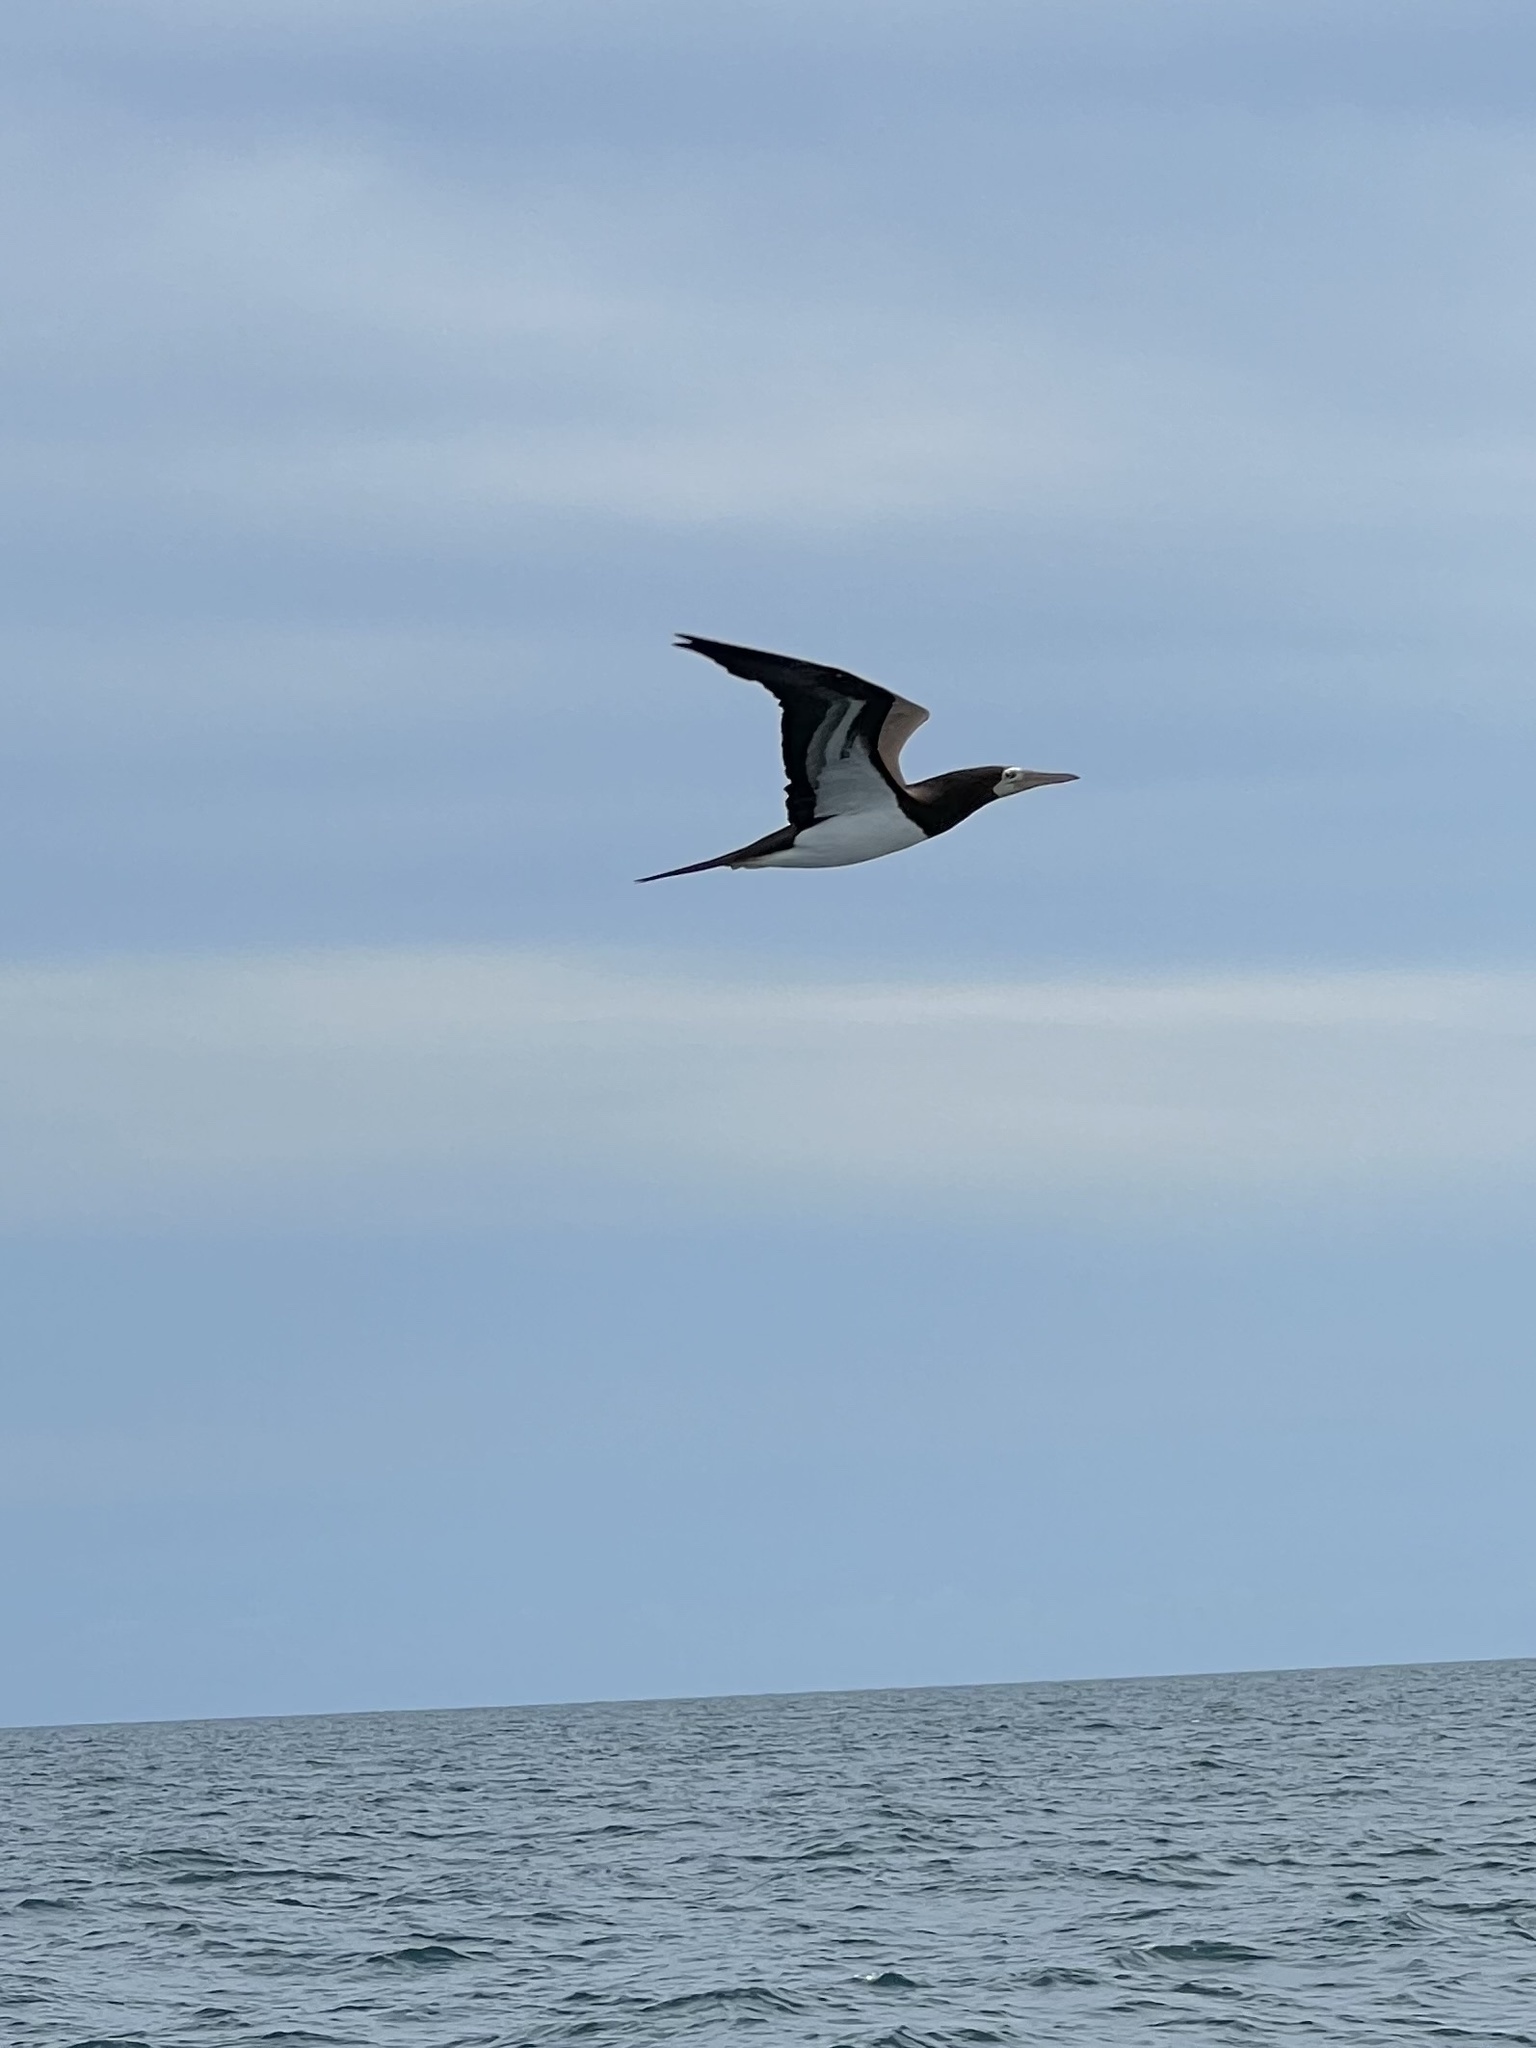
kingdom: Animalia
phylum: Chordata
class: Aves
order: Suliformes
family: Sulidae
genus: Sula
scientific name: Sula leucogaster
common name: Brown booby
